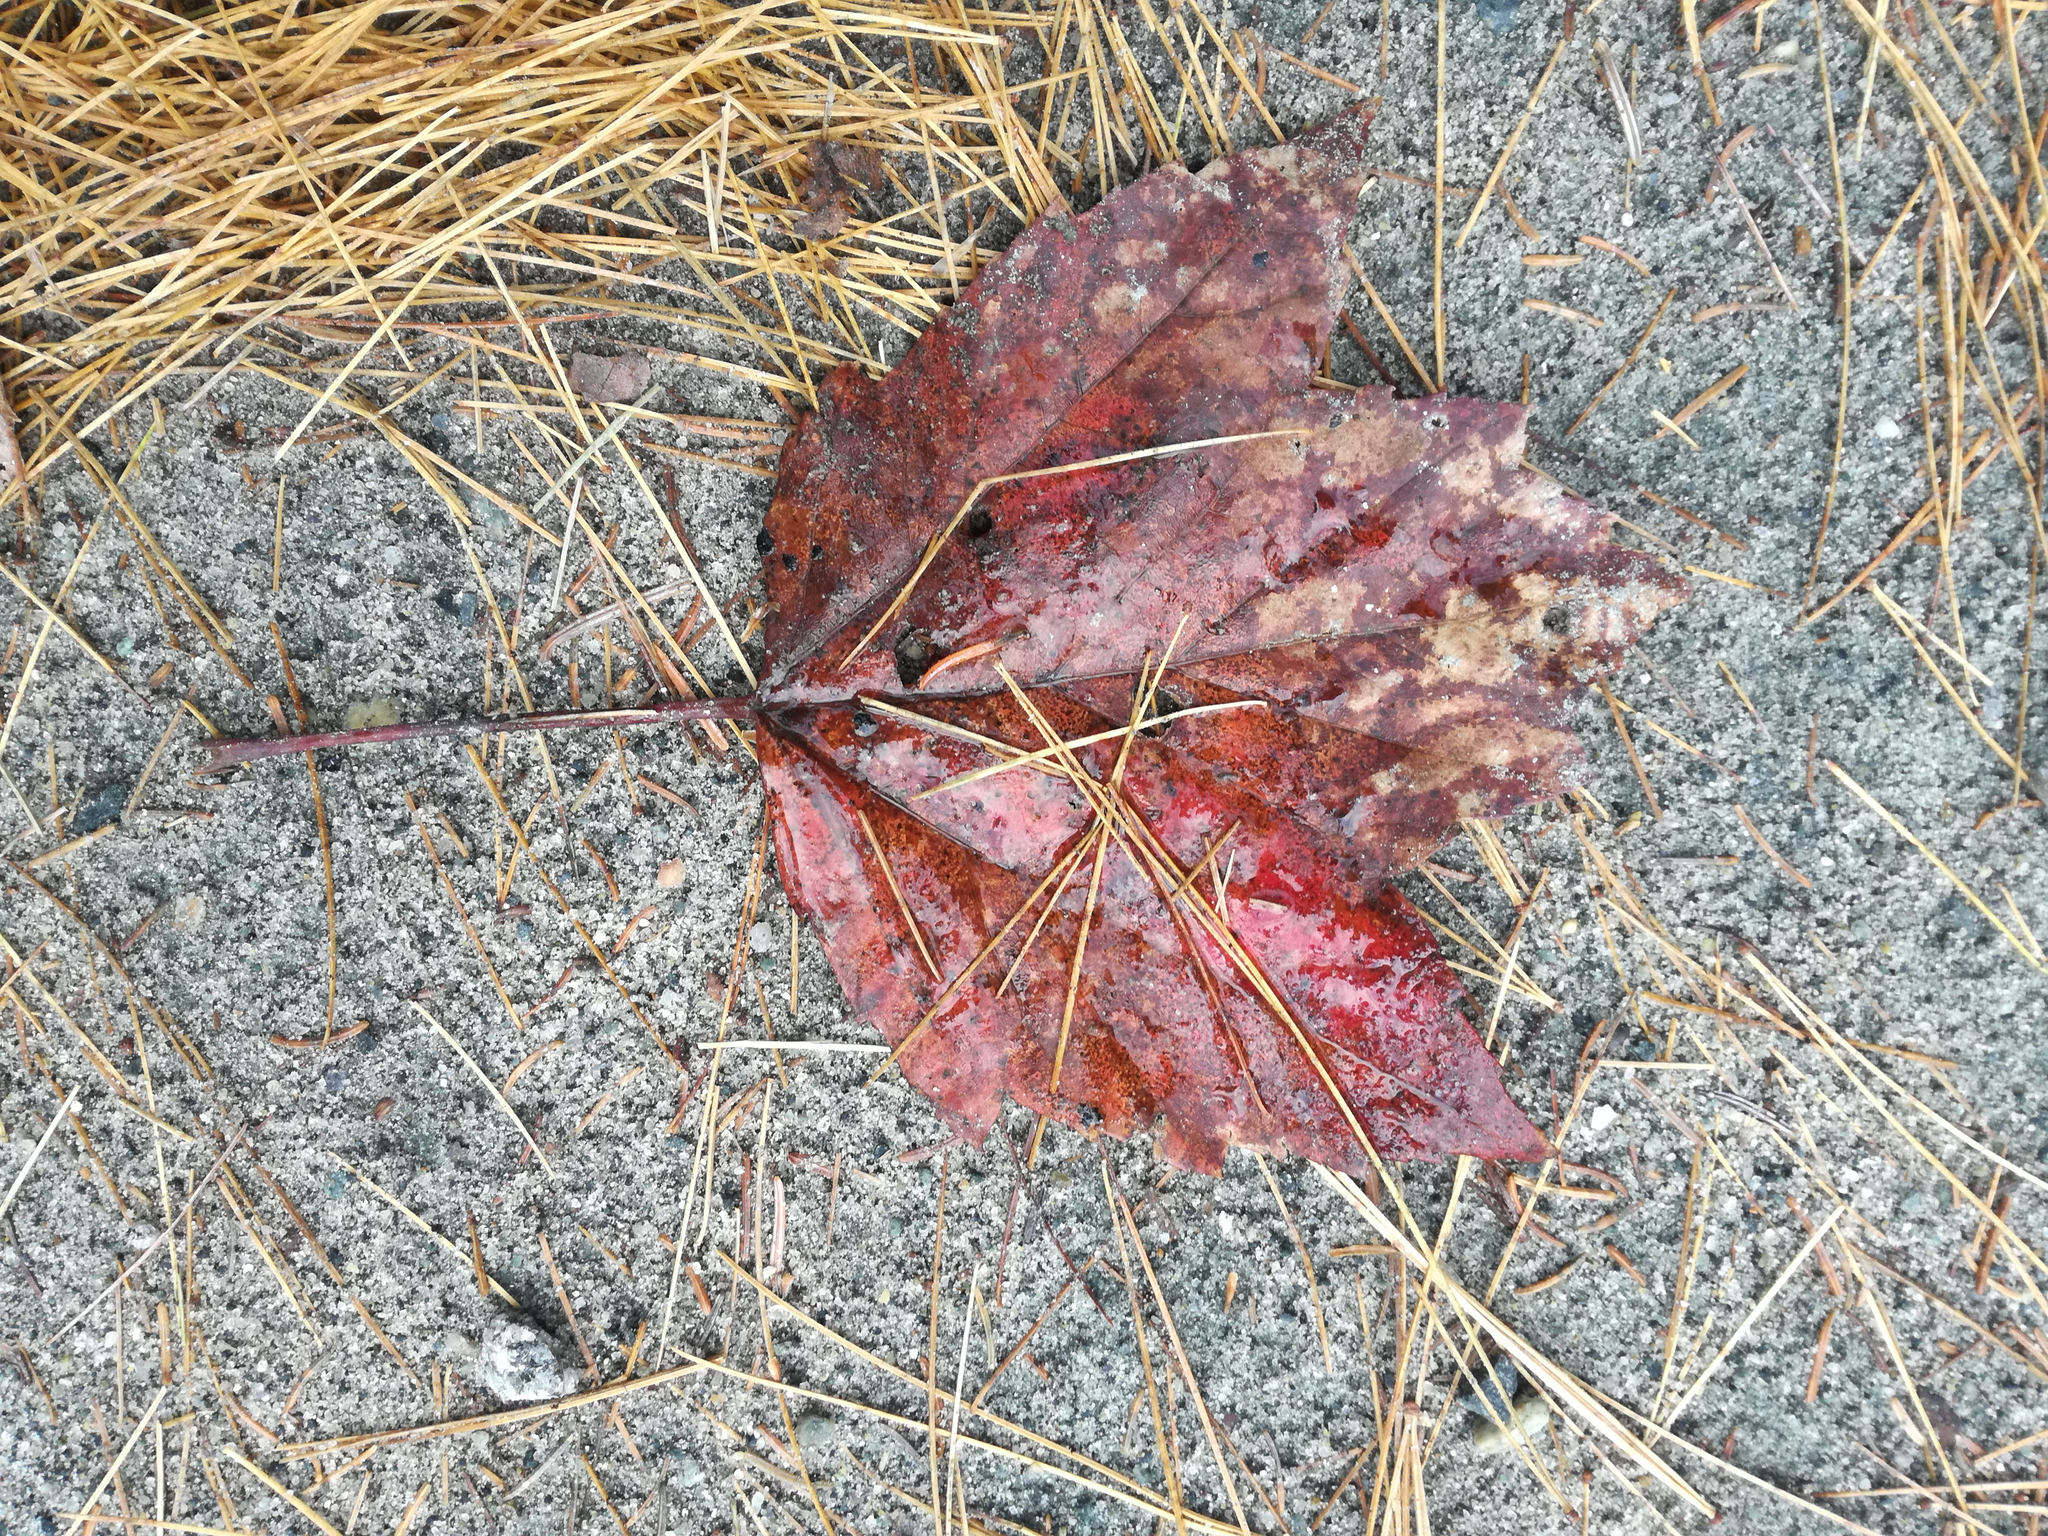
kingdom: Plantae
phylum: Tracheophyta
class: Magnoliopsida
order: Sapindales
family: Sapindaceae
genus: Acer
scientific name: Acer rubrum
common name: Red maple
